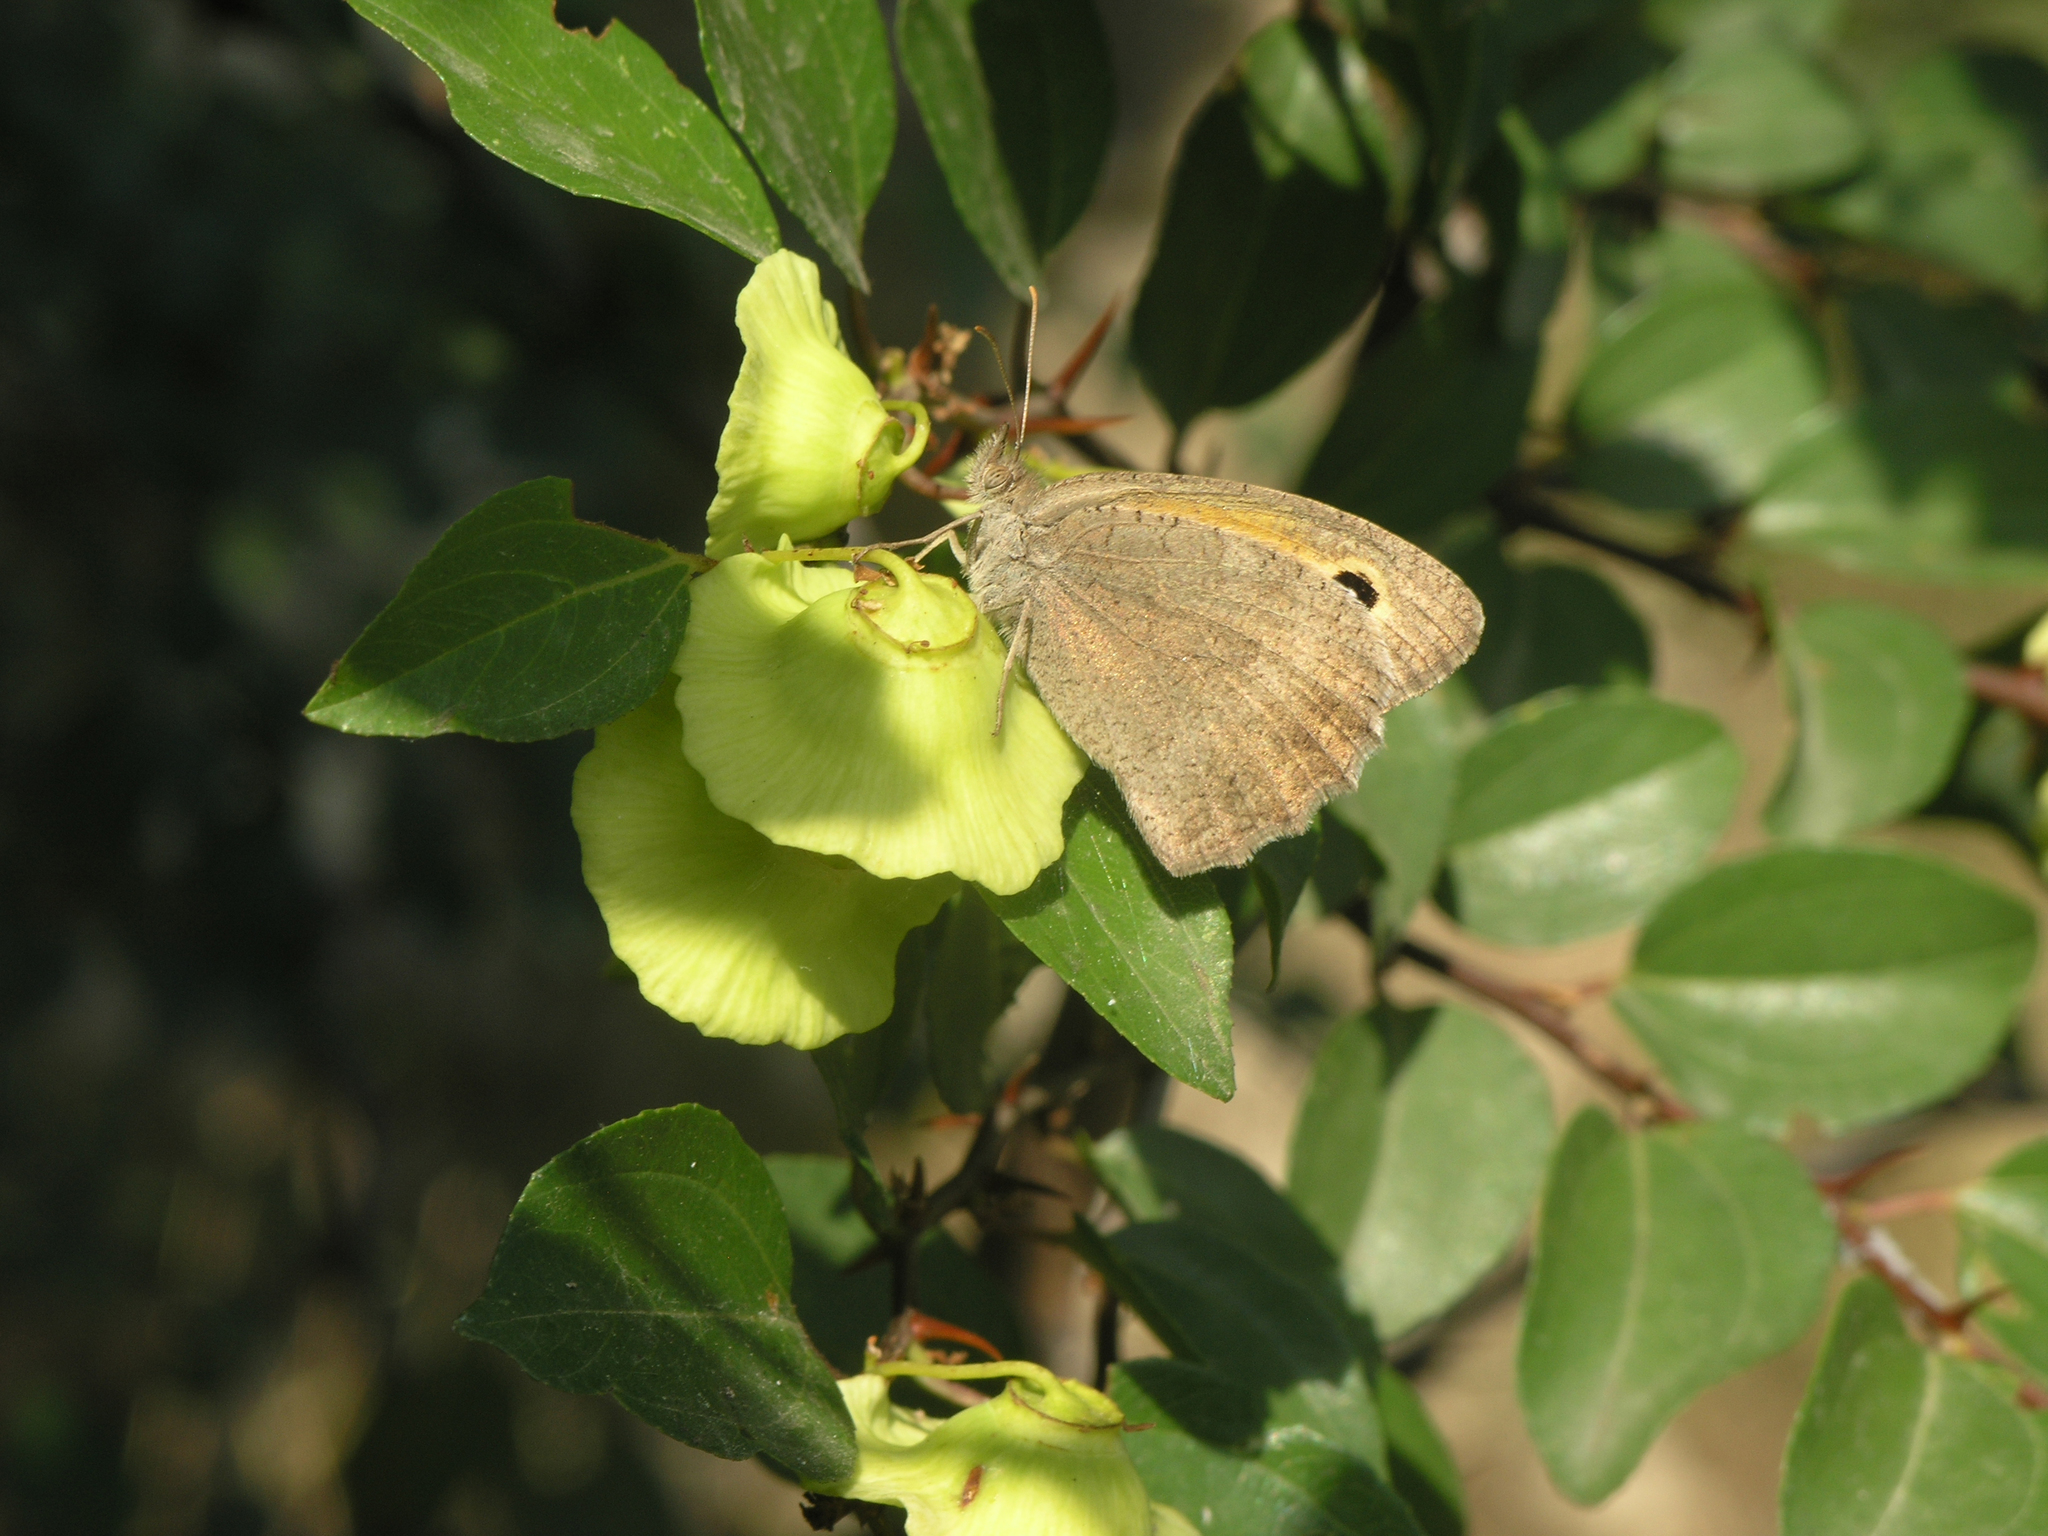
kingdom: Animalia
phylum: Arthropoda
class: Insecta
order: Lepidoptera
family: Nymphalidae
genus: Hyponephele
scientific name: Hyponephele lupinus
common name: Oriental meadow brown
